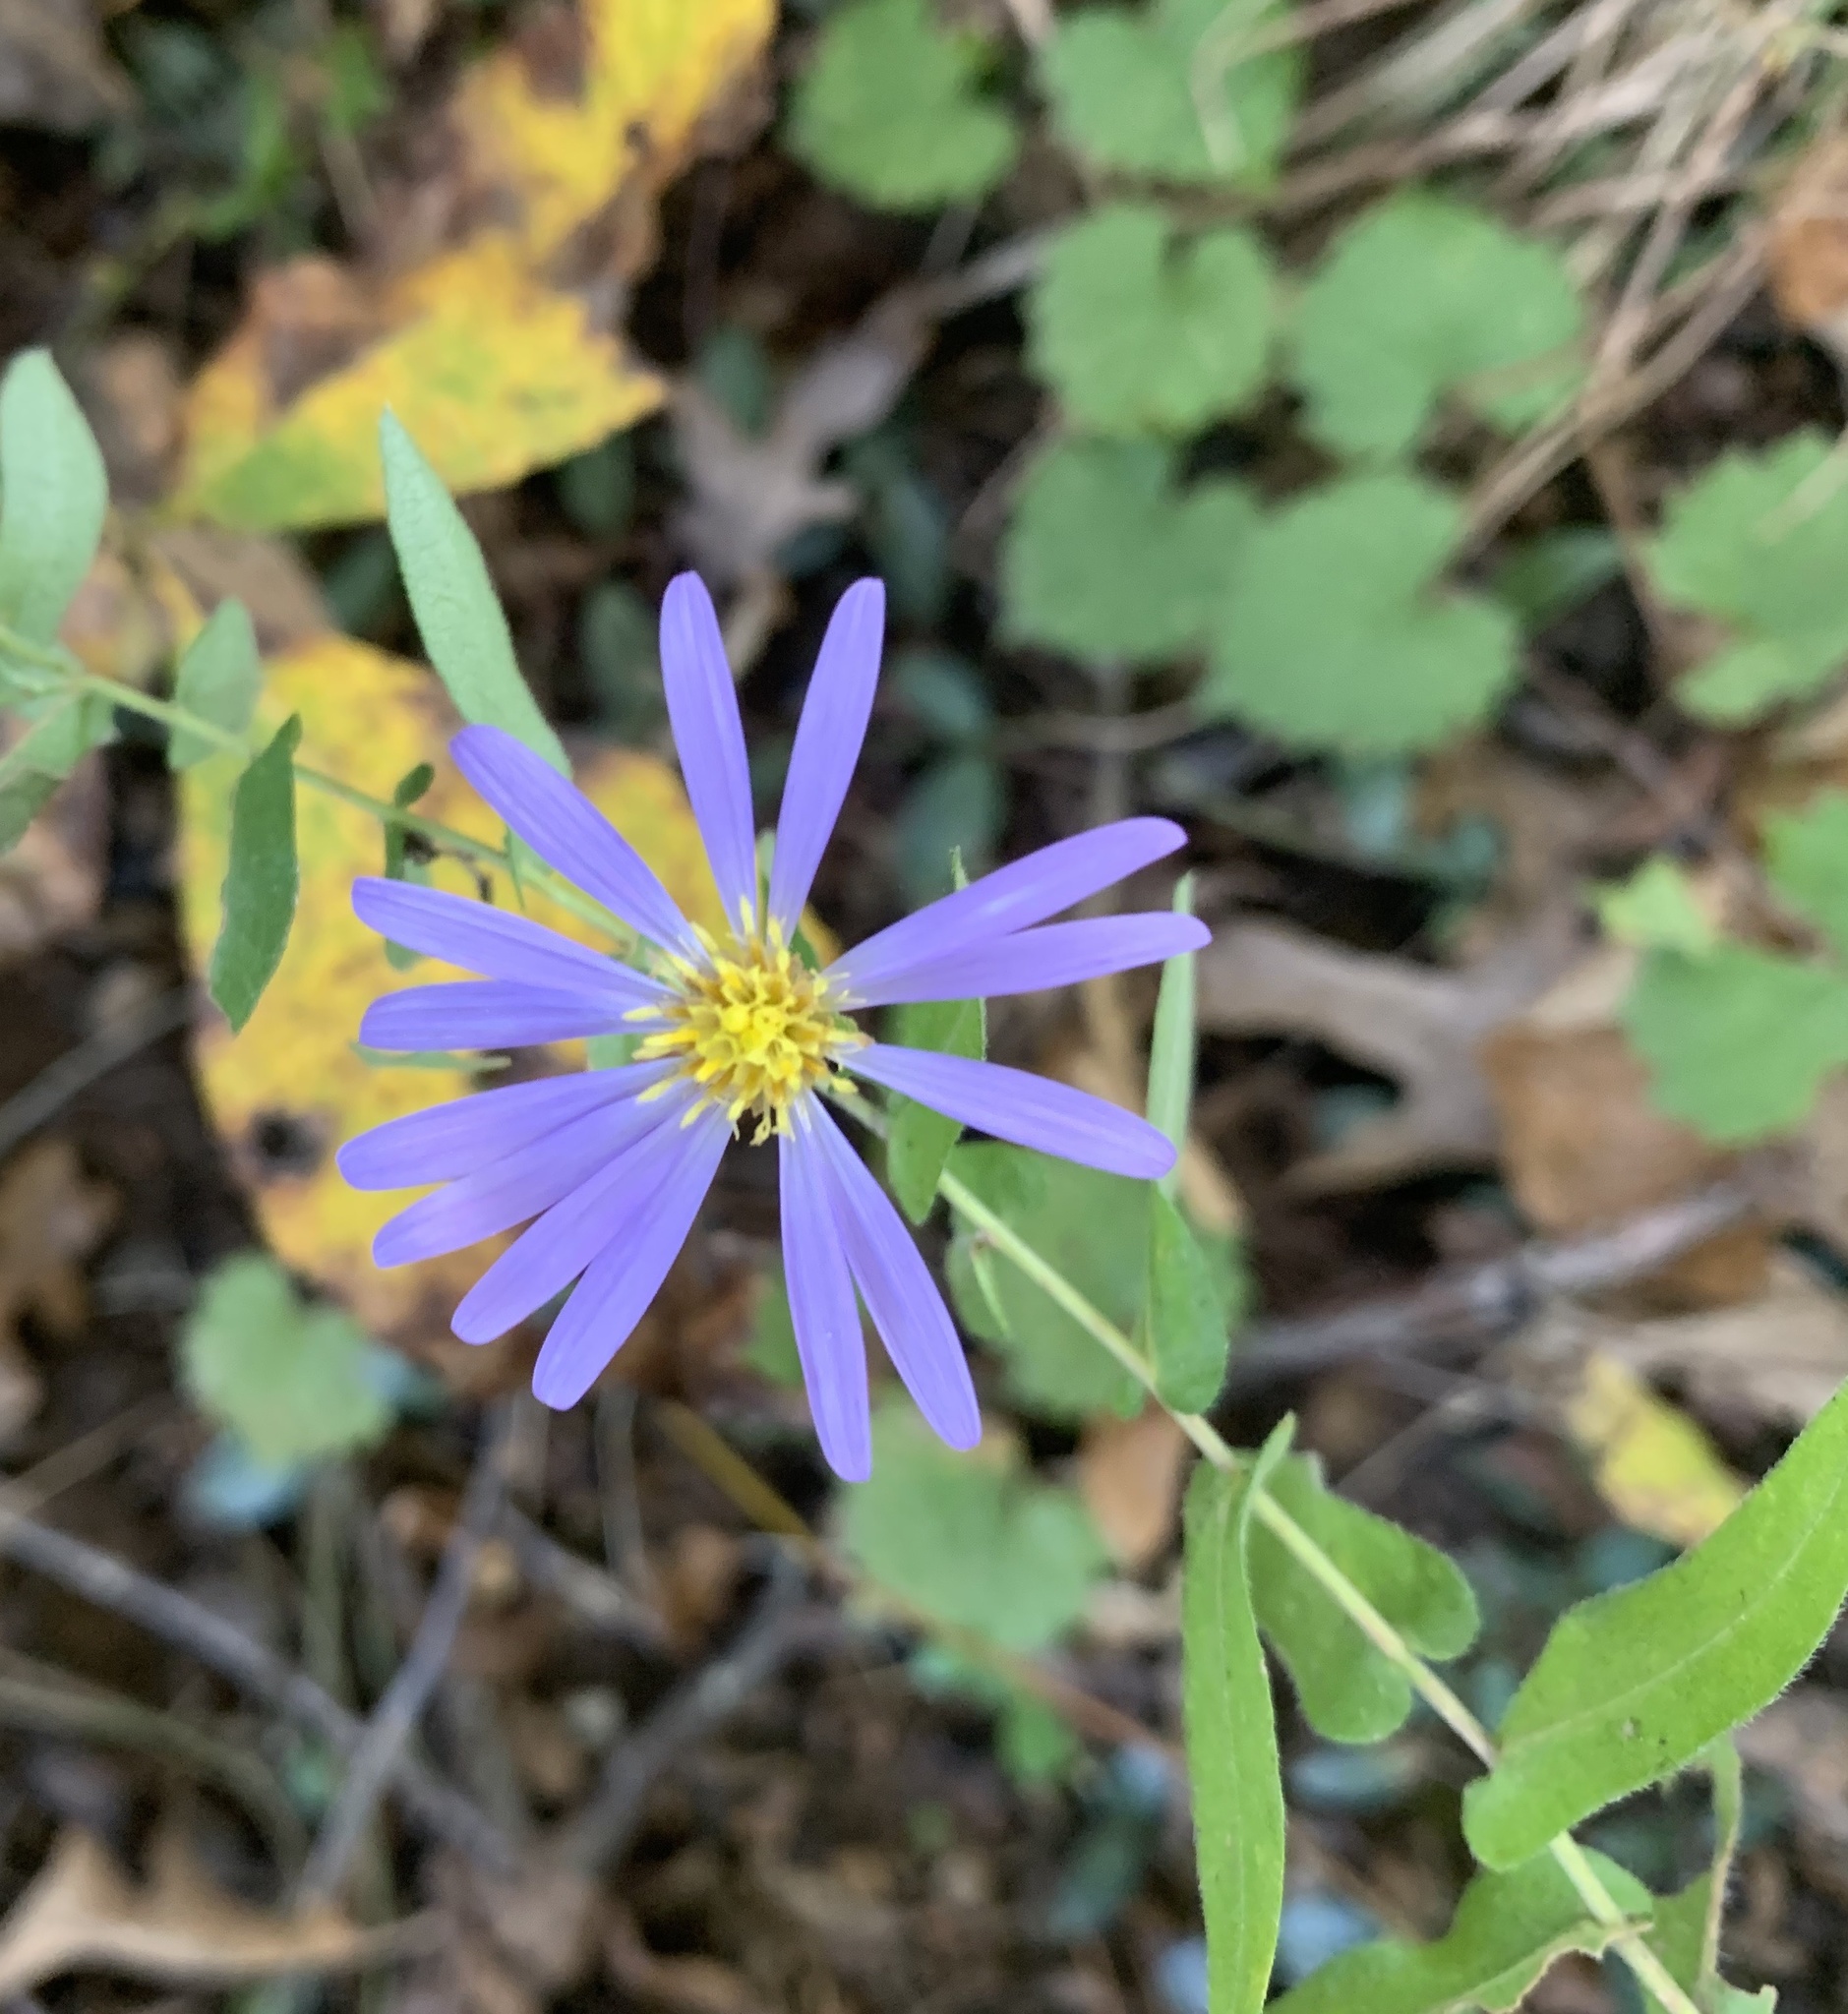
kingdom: Plantae
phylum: Tracheophyta
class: Magnoliopsida
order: Asterales
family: Asteraceae
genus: Symphyotrichum
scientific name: Symphyotrichum patens
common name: Late purple aster
